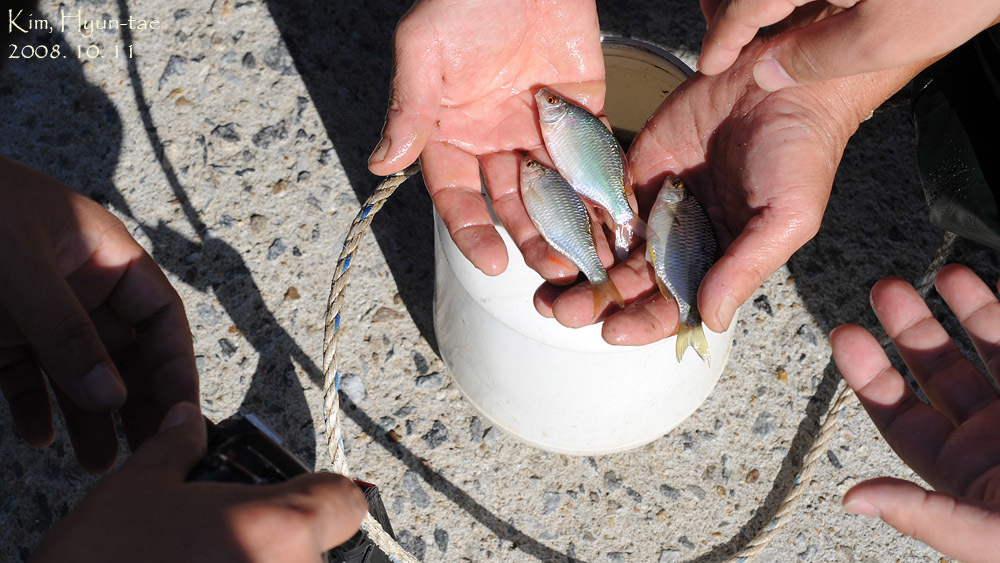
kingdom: Animalia
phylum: Chordata
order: Cypriniformes
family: Cyprinidae
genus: Acheilognathus
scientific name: Acheilognathus rhombeus
